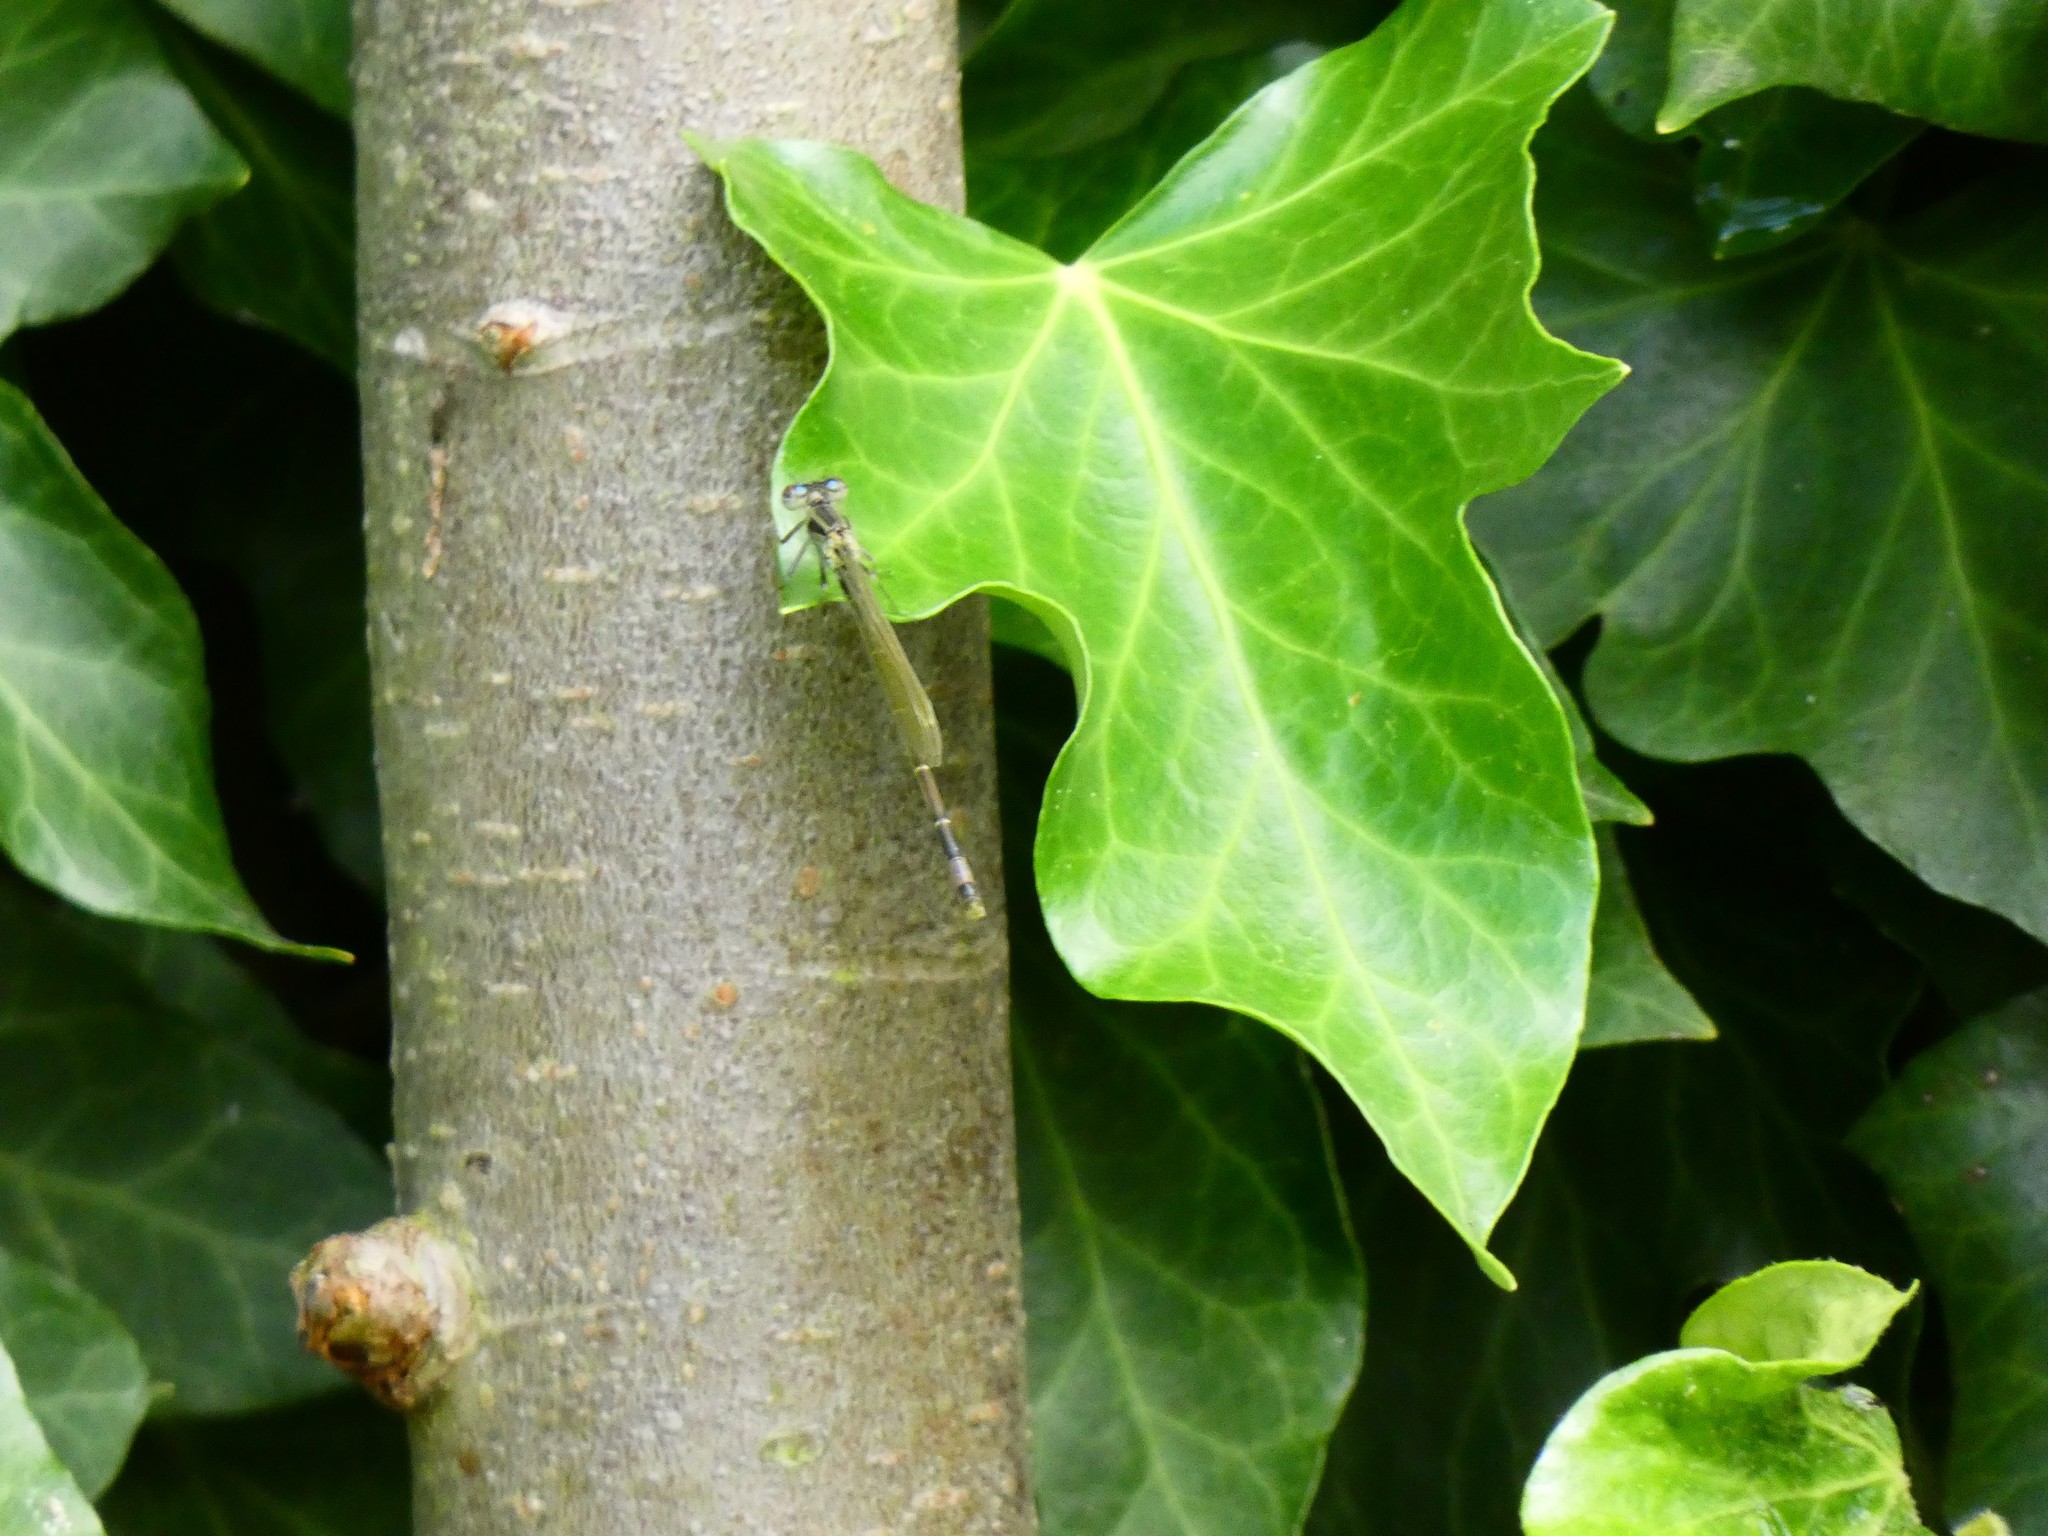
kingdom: Animalia
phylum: Arthropoda
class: Insecta
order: Odonata
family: Coenagrionidae
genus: Ischnura
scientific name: Ischnura elegans
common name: Blue-tailed damselfly
